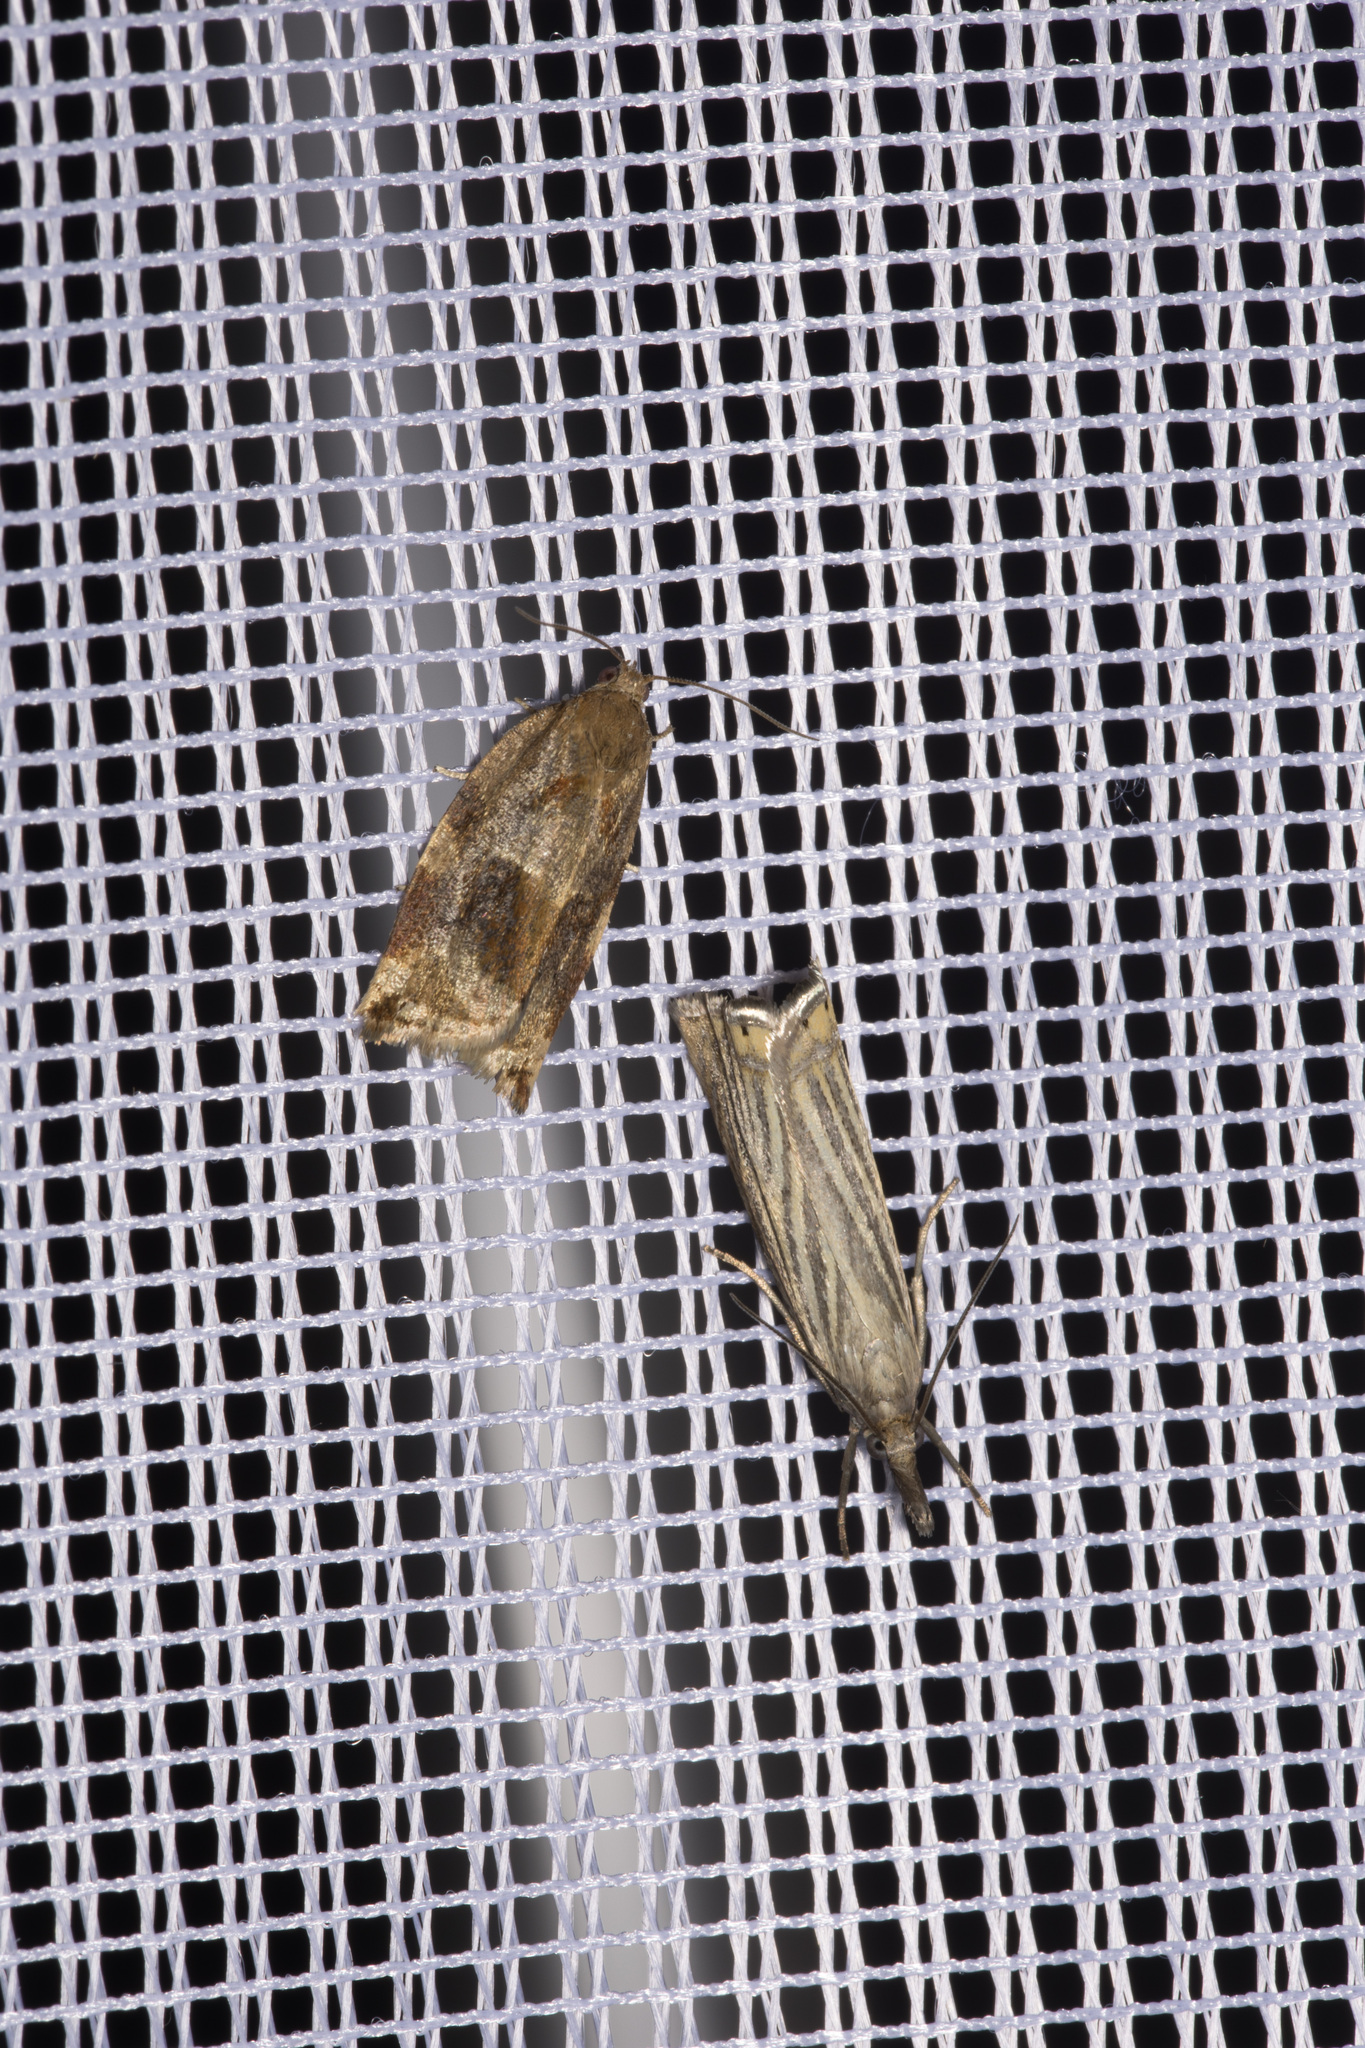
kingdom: Animalia
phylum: Arthropoda
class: Insecta
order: Lepidoptera
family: Crambidae
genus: Chrysoteuchia
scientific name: Chrysoteuchia culmella
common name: Garden grass-veneer
